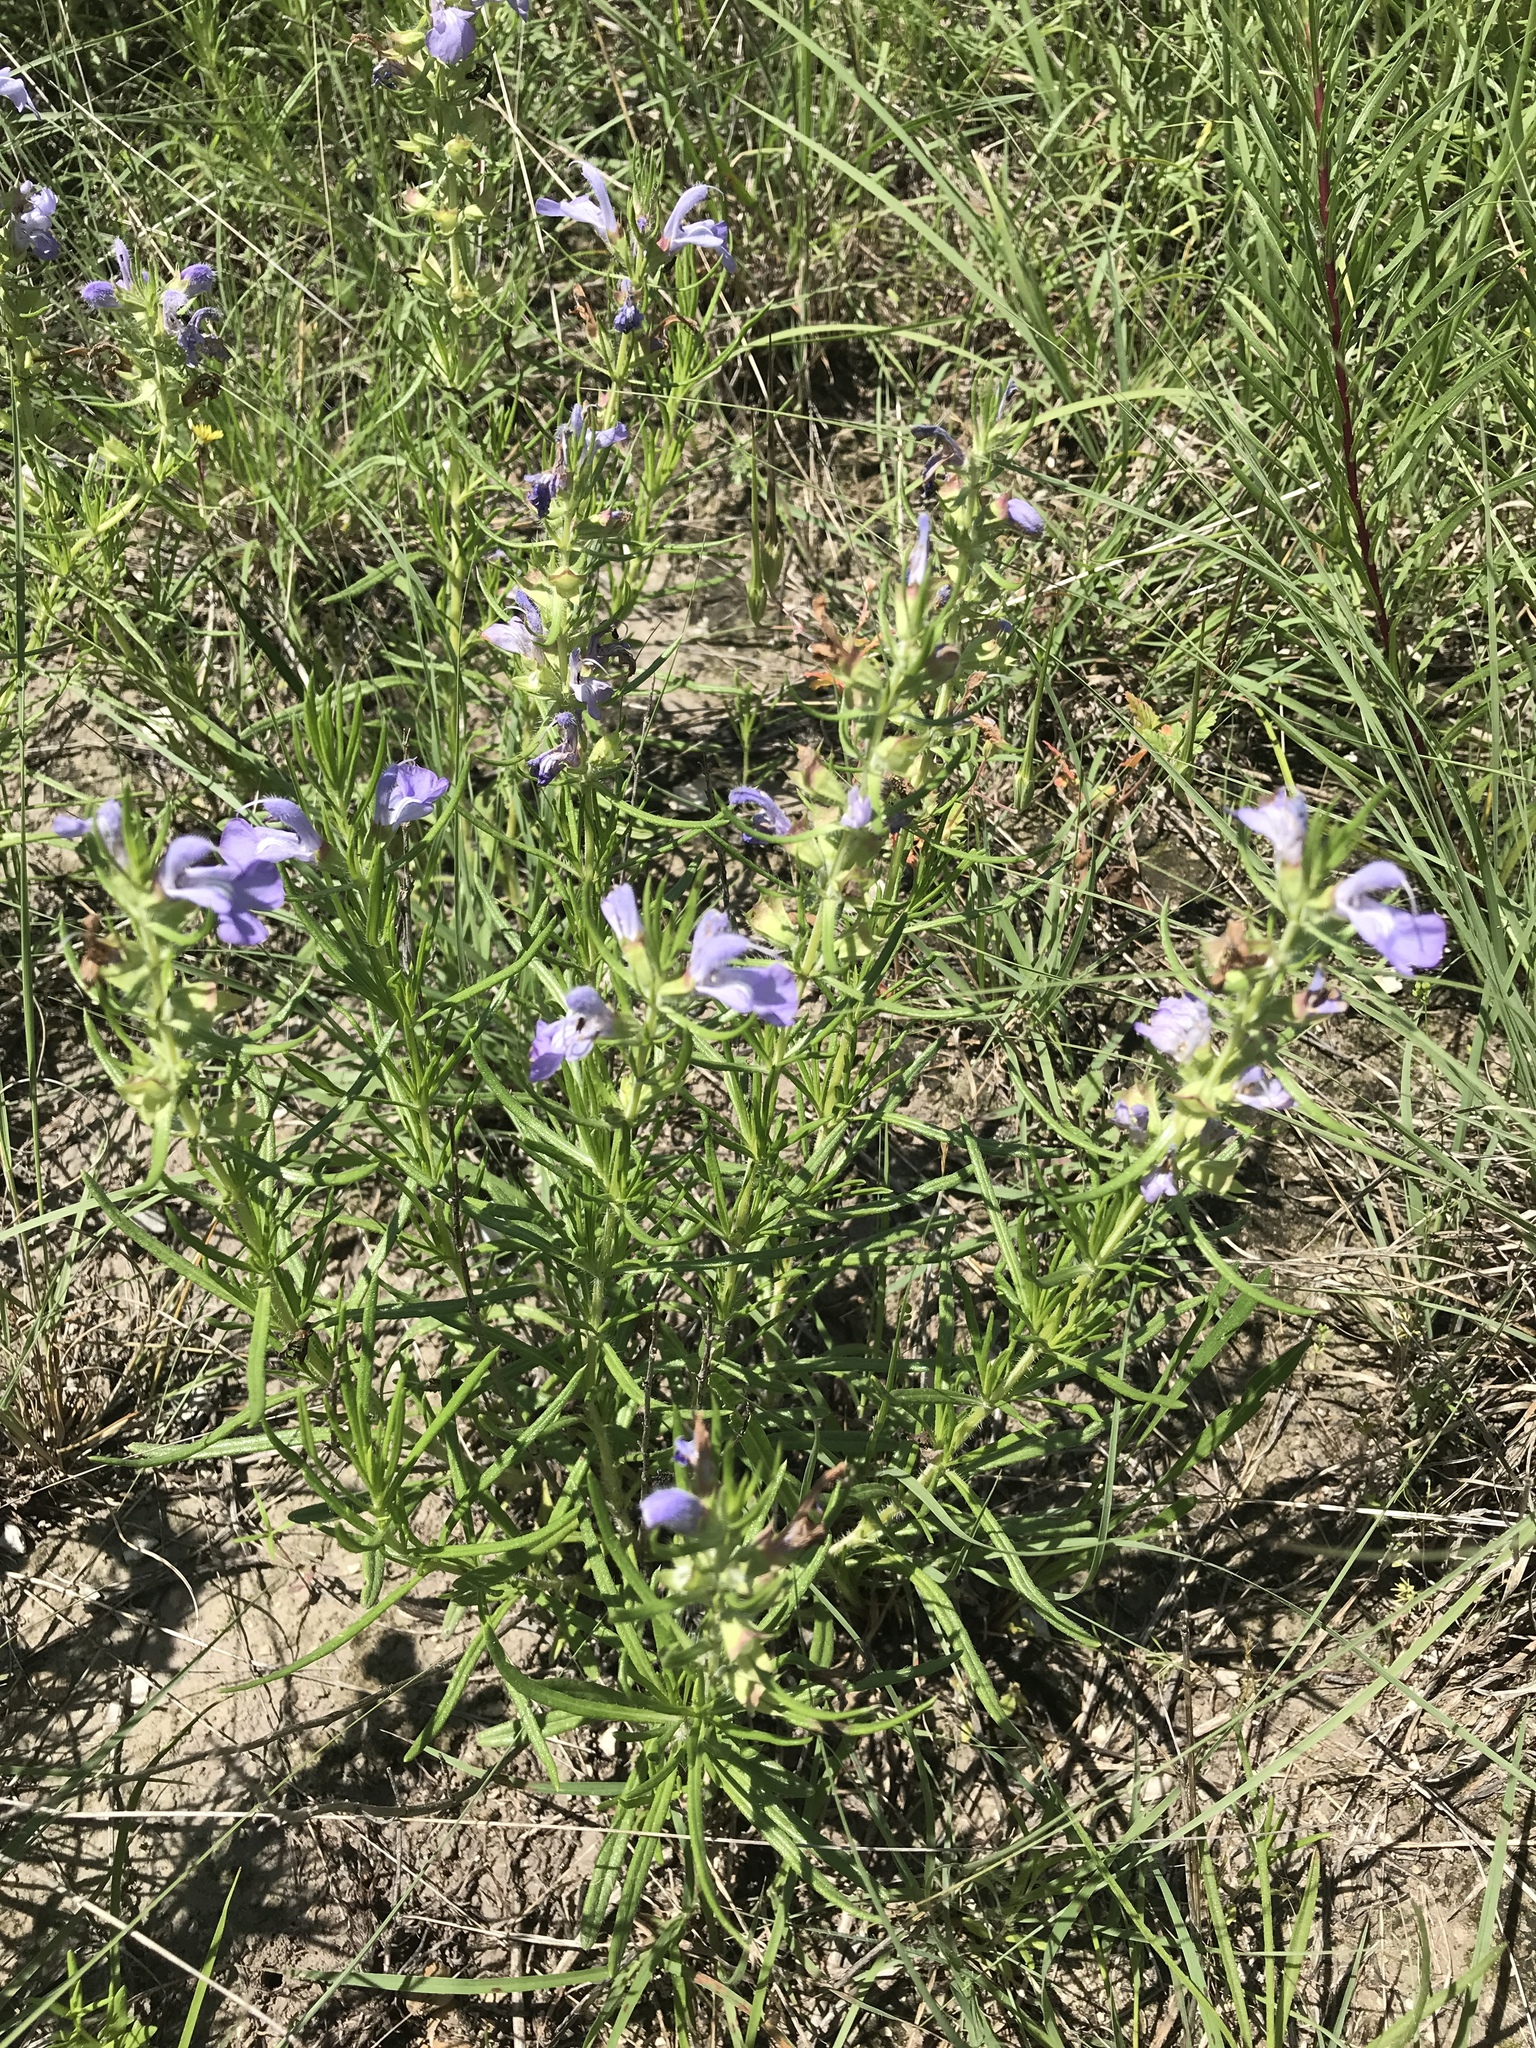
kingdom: Plantae
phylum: Tracheophyta
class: Magnoliopsida
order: Lamiales
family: Lamiaceae
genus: Salvia
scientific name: Salvia engelmannii
